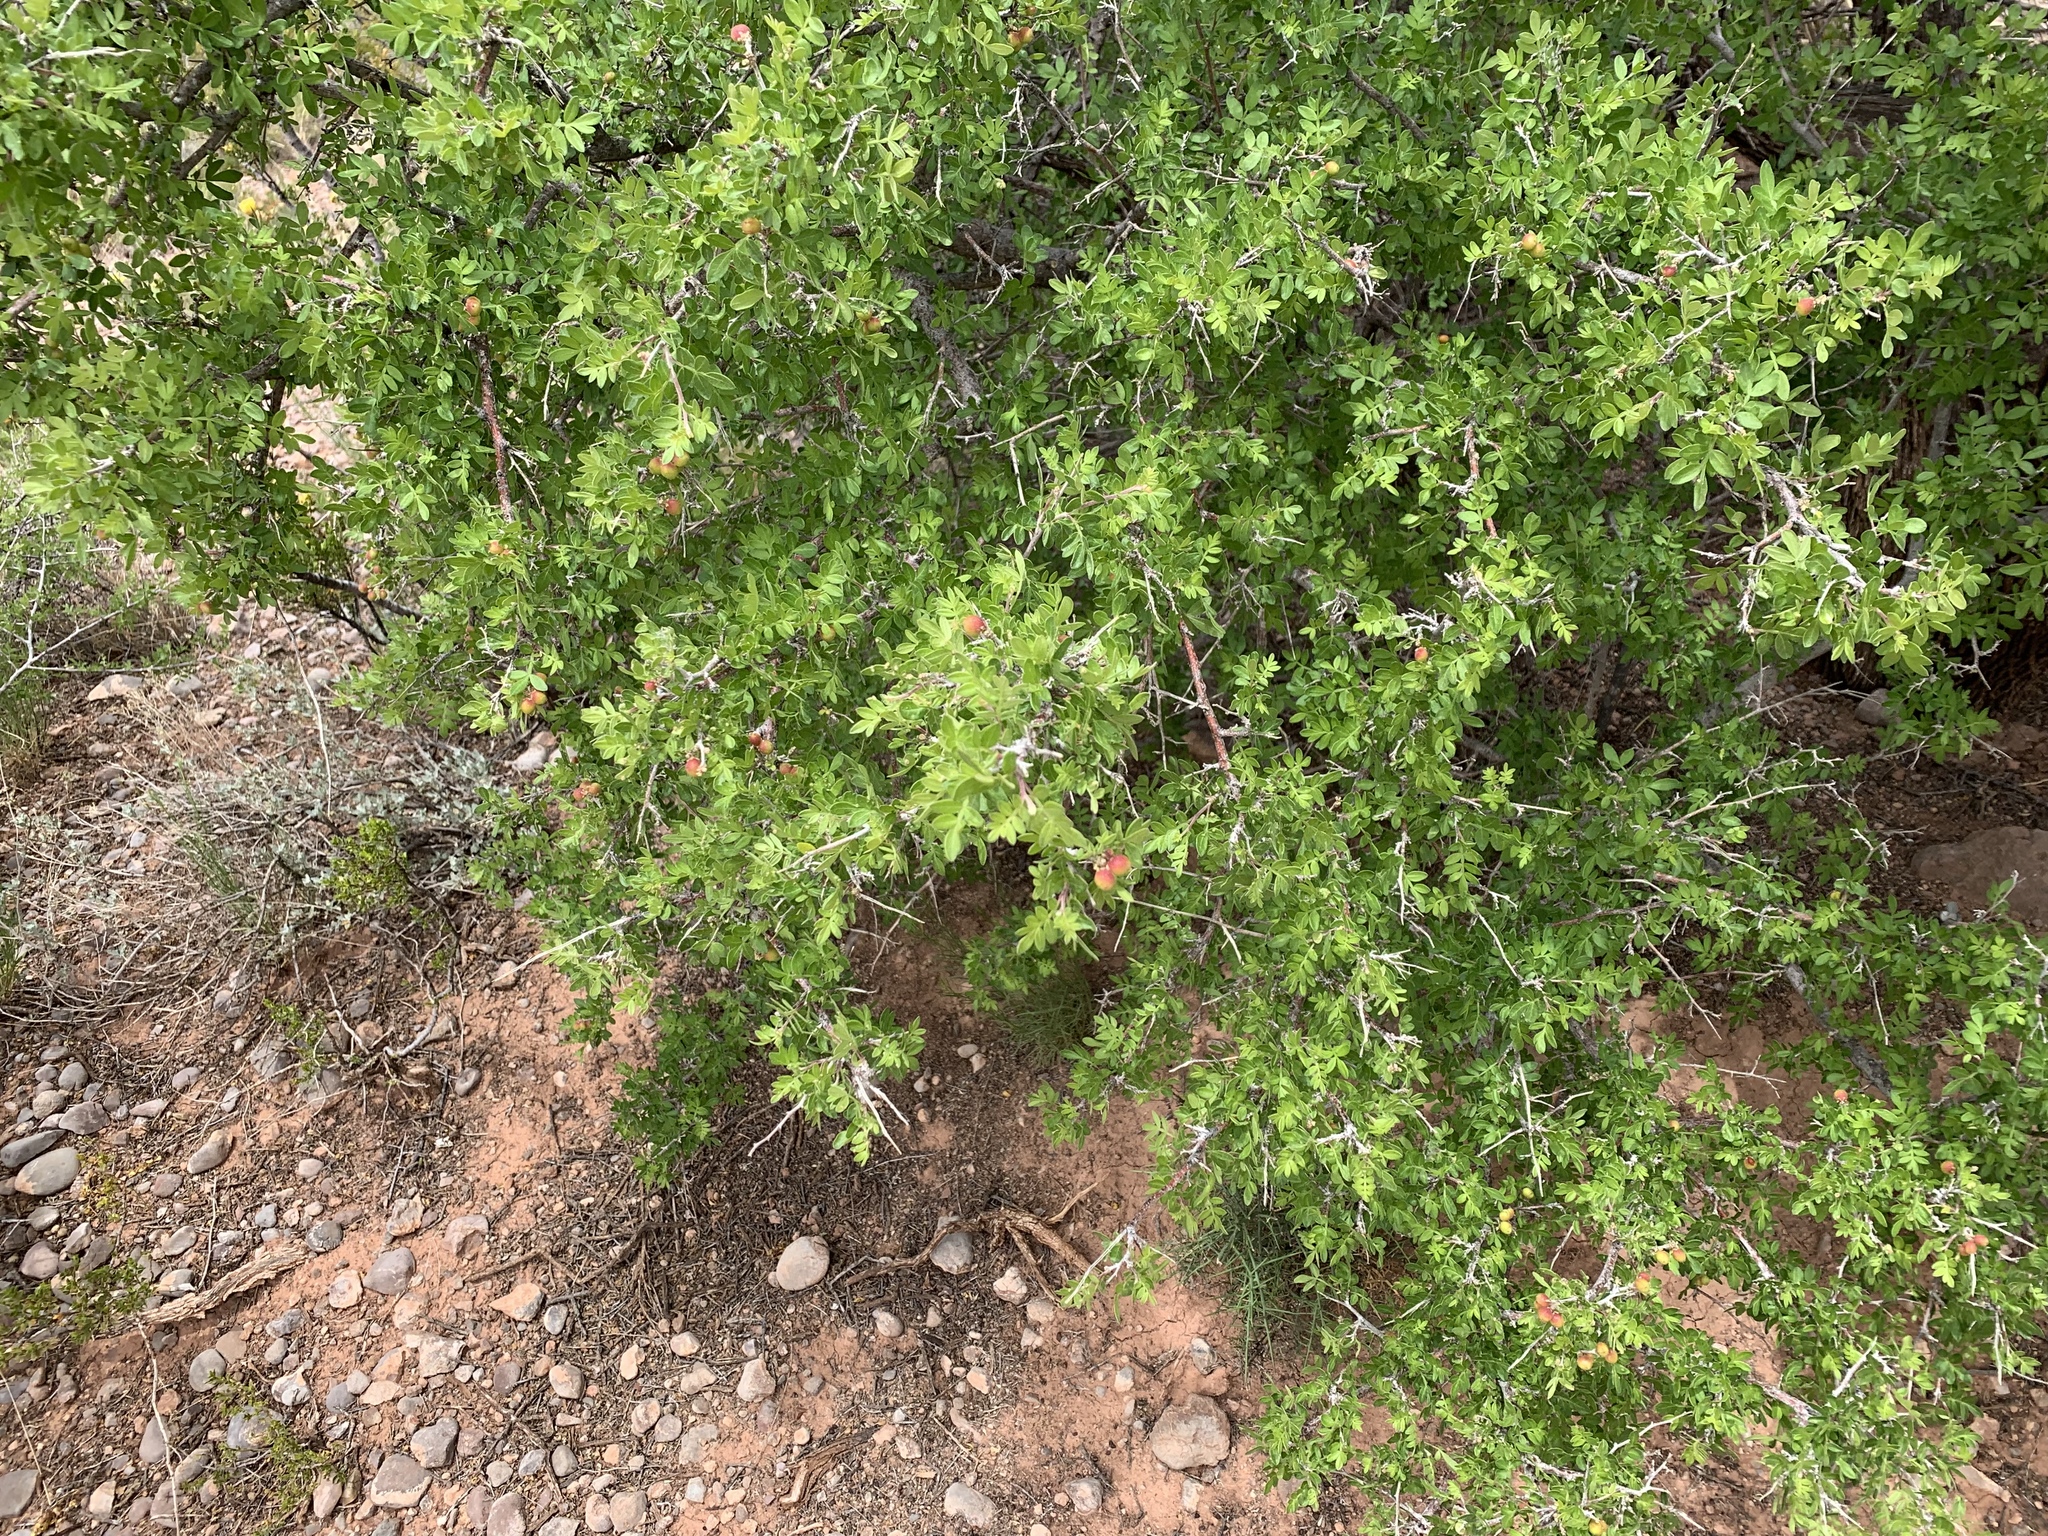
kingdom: Plantae
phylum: Tracheophyta
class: Magnoliopsida
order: Sapindales
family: Anacardiaceae
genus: Rhus
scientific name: Rhus microphylla
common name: Desert sumac
